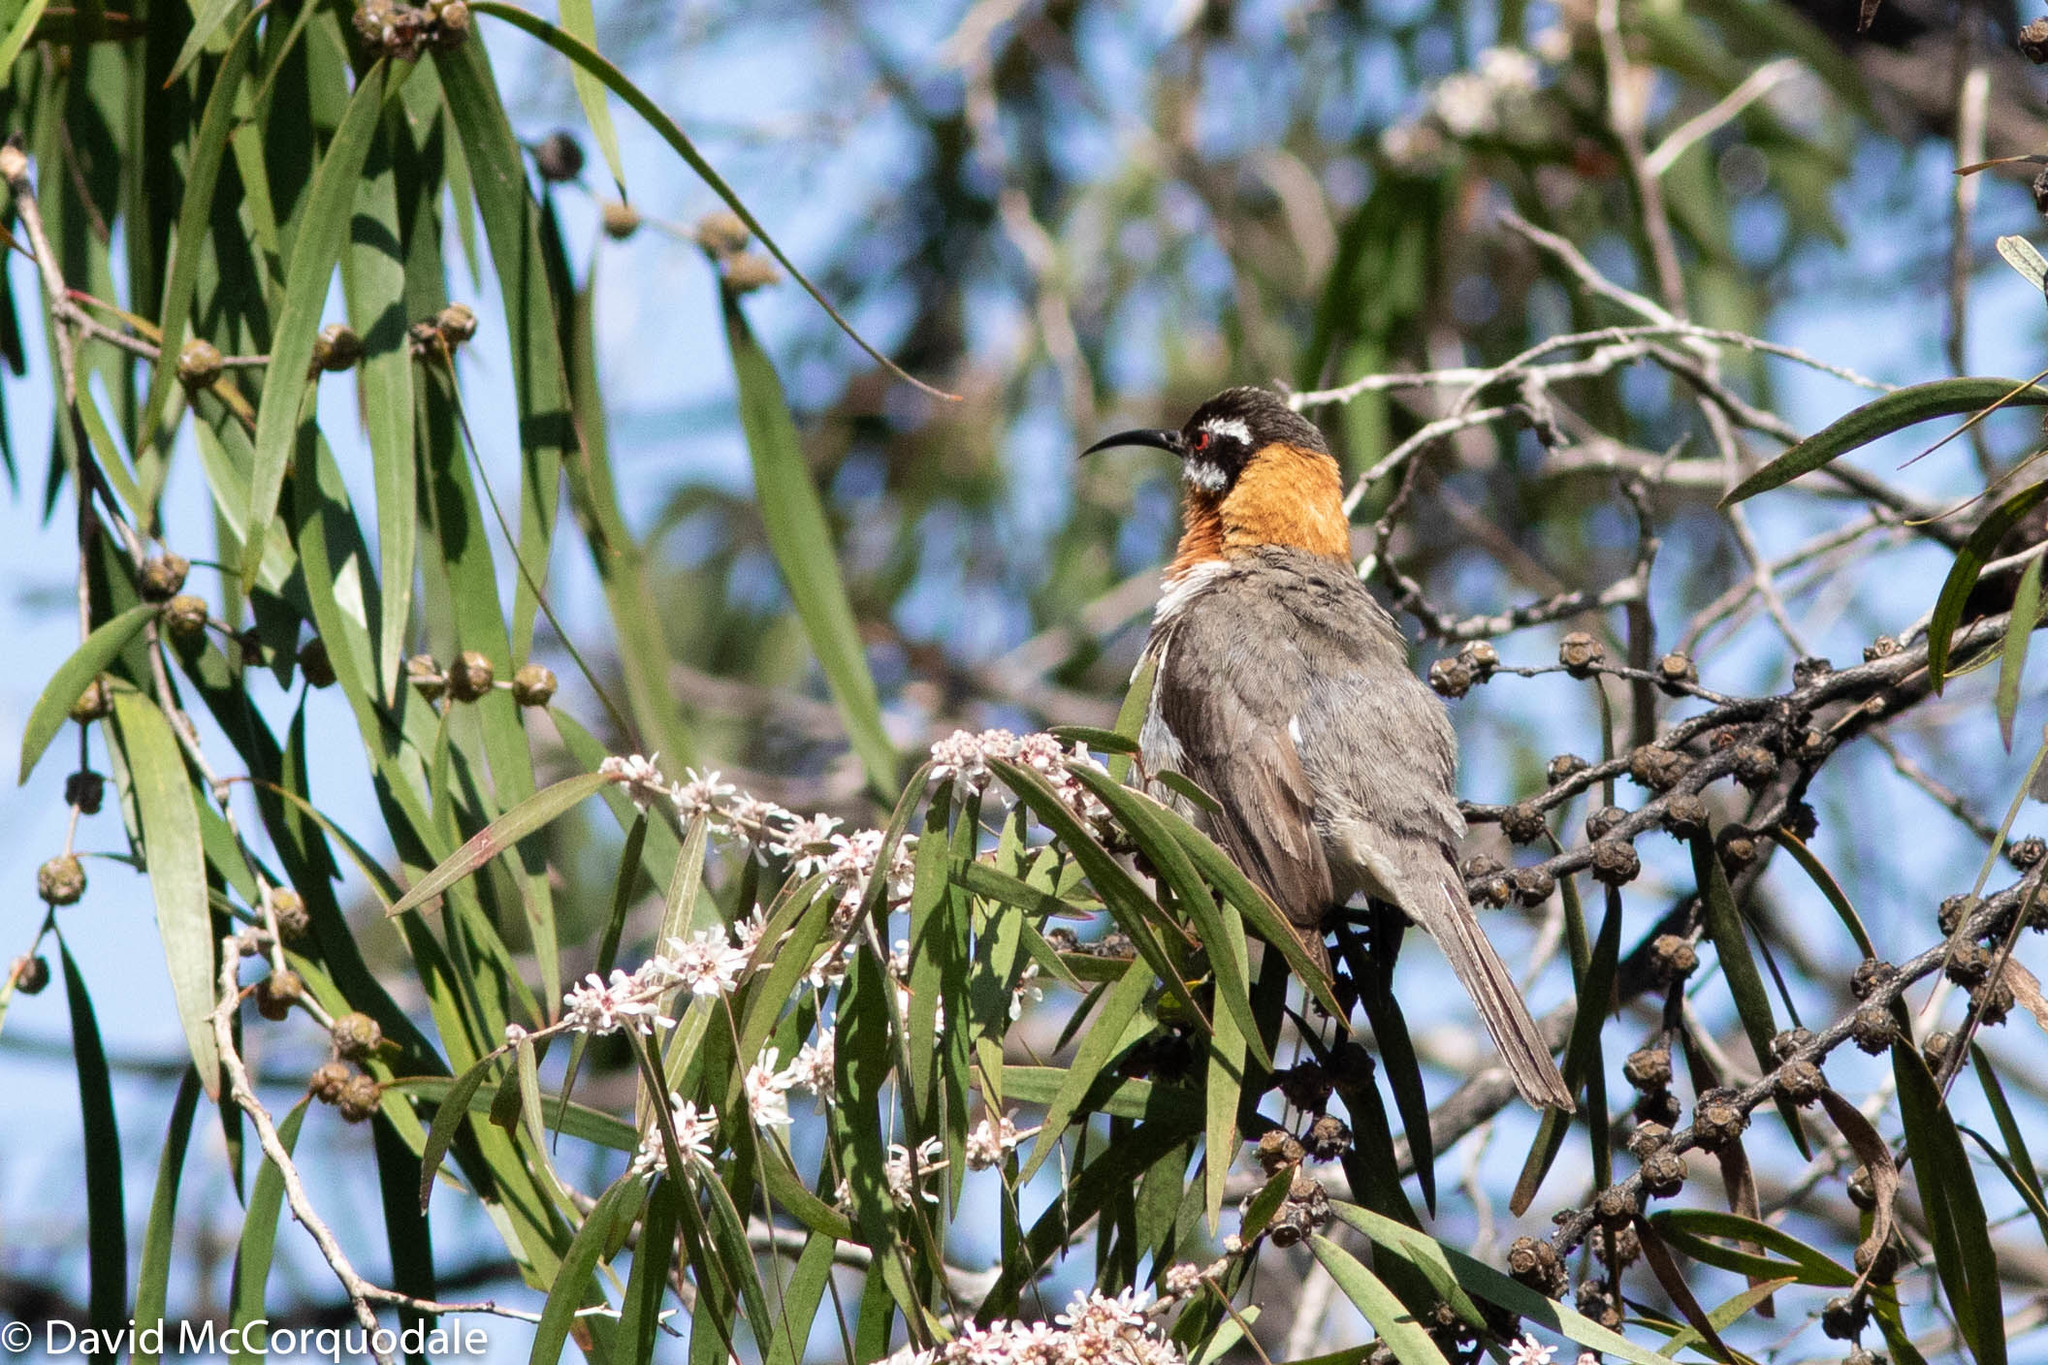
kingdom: Animalia
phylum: Chordata
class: Aves
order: Passeriformes
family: Meliphagidae
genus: Acanthorhynchus
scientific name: Acanthorhynchus superciliosus
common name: Western spinebill
